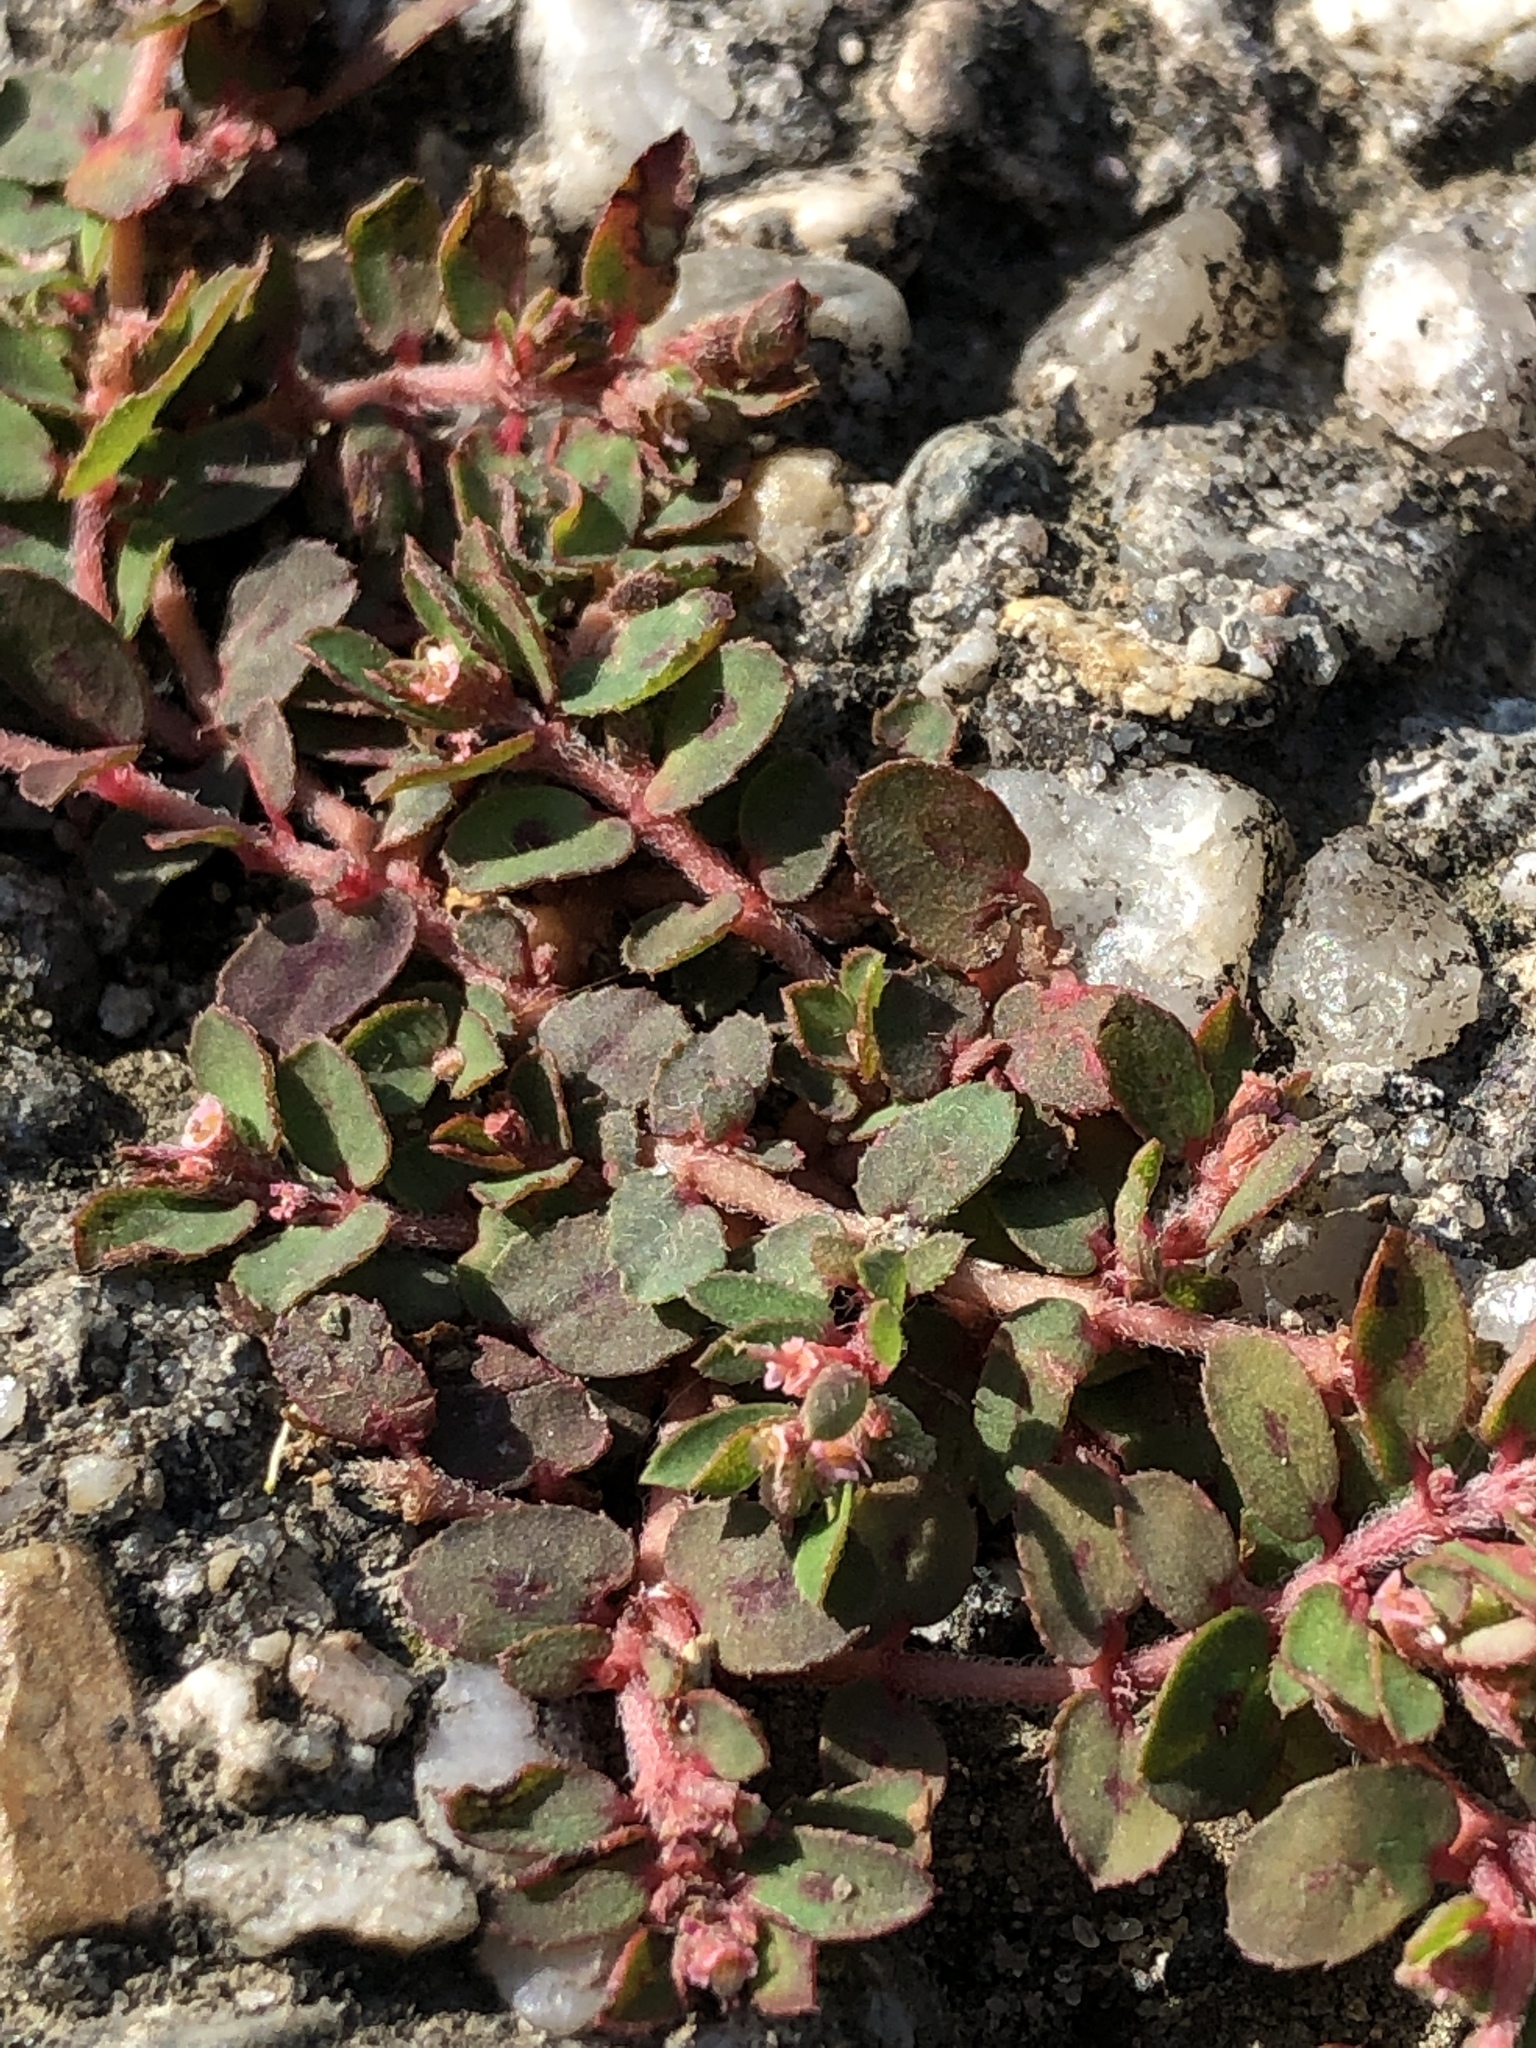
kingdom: Plantae
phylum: Tracheophyta
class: Magnoliopsida
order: Malpighiales
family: Euphorbiaceae
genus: Euphorbia
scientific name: Euphorbia maculata
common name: Spotted spurge
